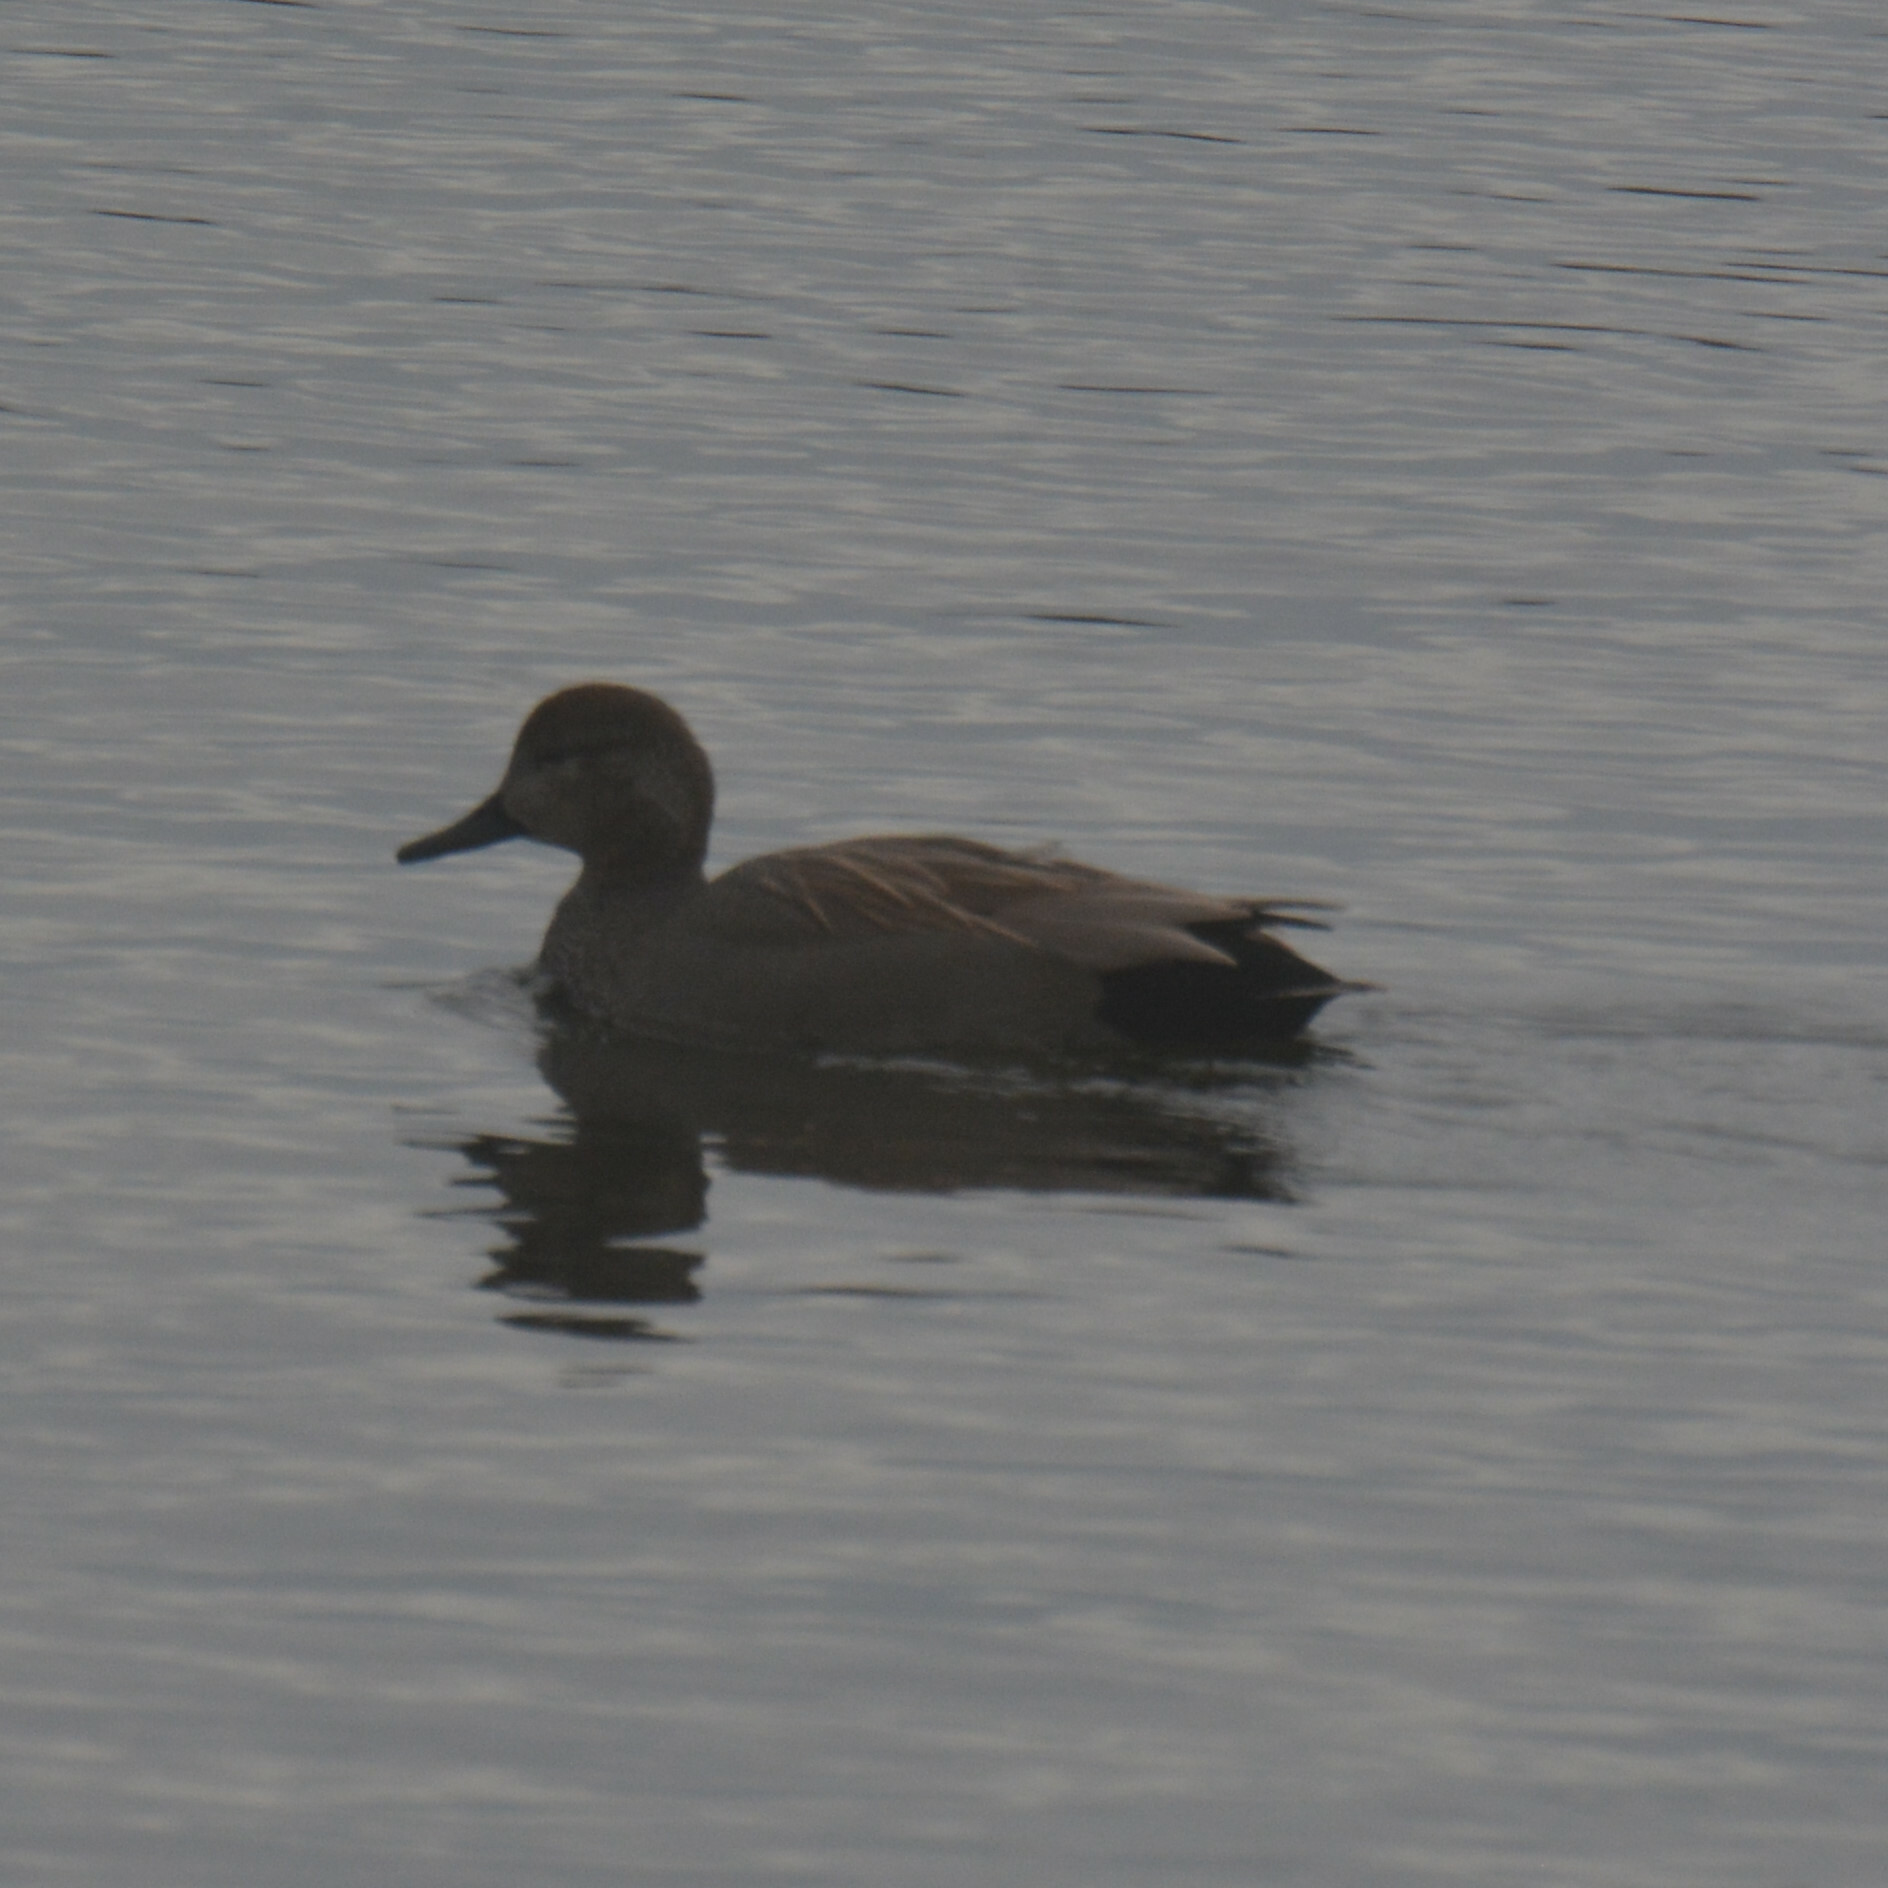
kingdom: Animalia
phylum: Chordata
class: Aves
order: Anseriformes
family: Anatidae
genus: Mareca
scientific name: Mareca strepera
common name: Gadwall
